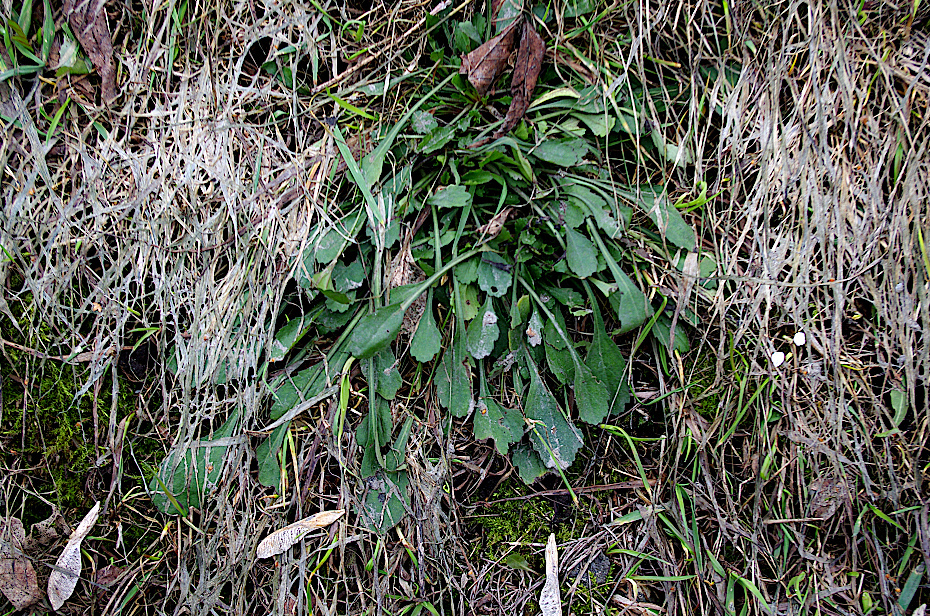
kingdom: Plantae
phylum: Tracheophyta
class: Magnoliopsida
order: Asterales
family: Asteraceae
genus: Leucanthemum
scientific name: Leucanthemum vulgare
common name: Oxeye daisy
